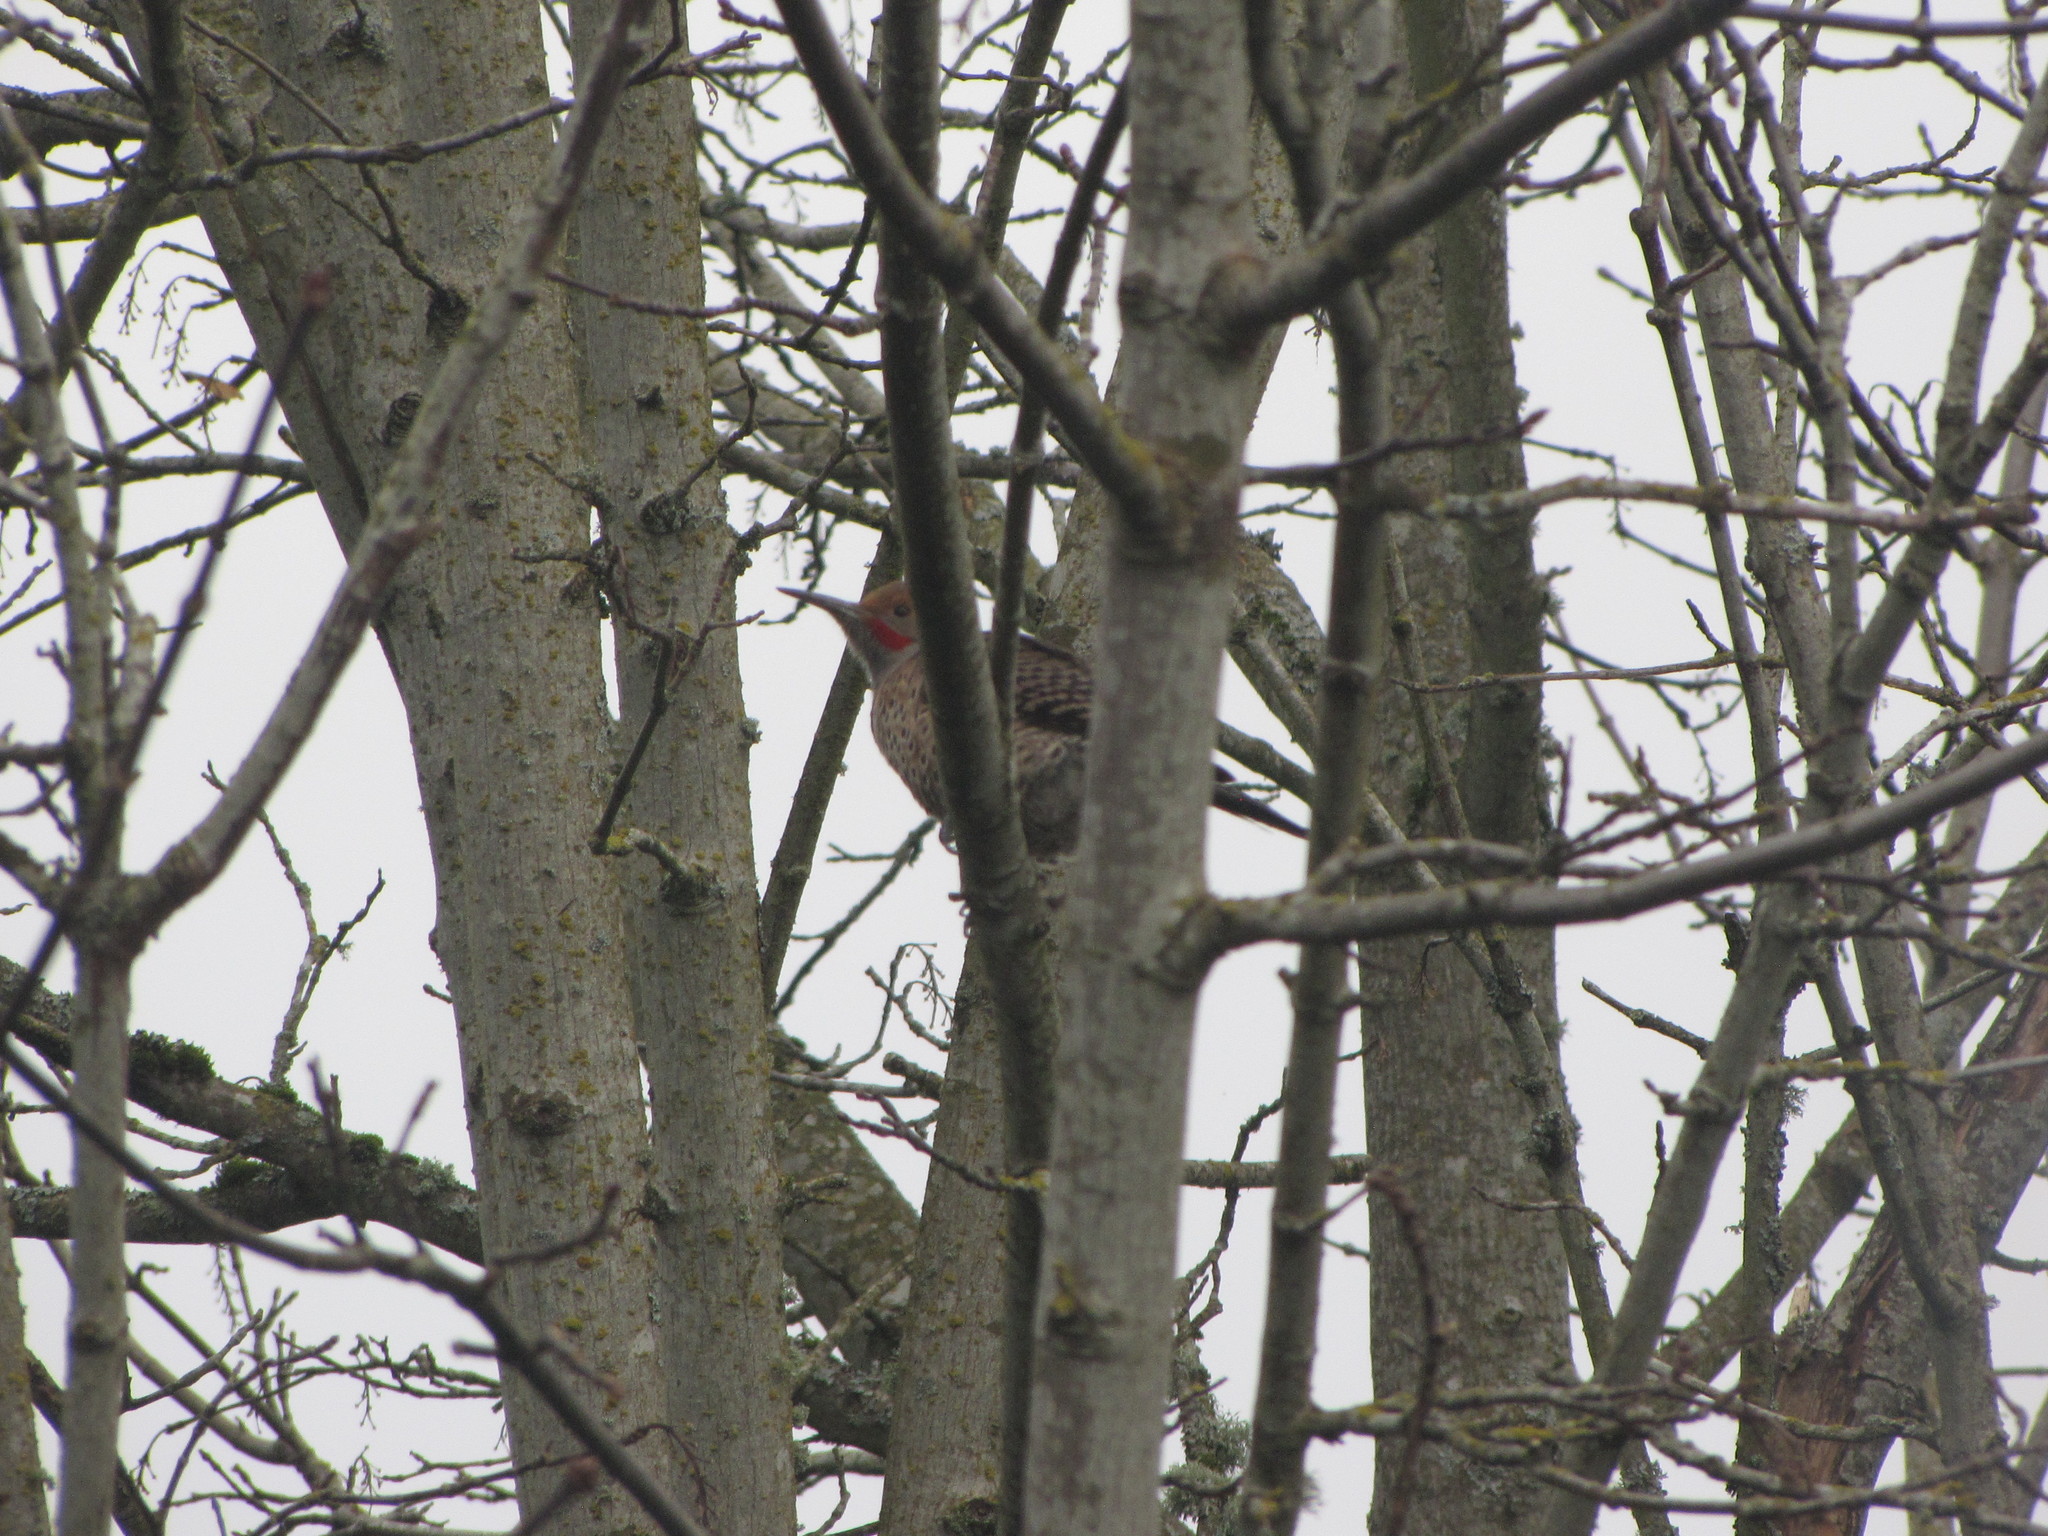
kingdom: Animalia
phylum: Chordata
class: Aves
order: Piciformes
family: Picidae
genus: Colaptes
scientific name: Colaptes auratus
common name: Northern flicker
